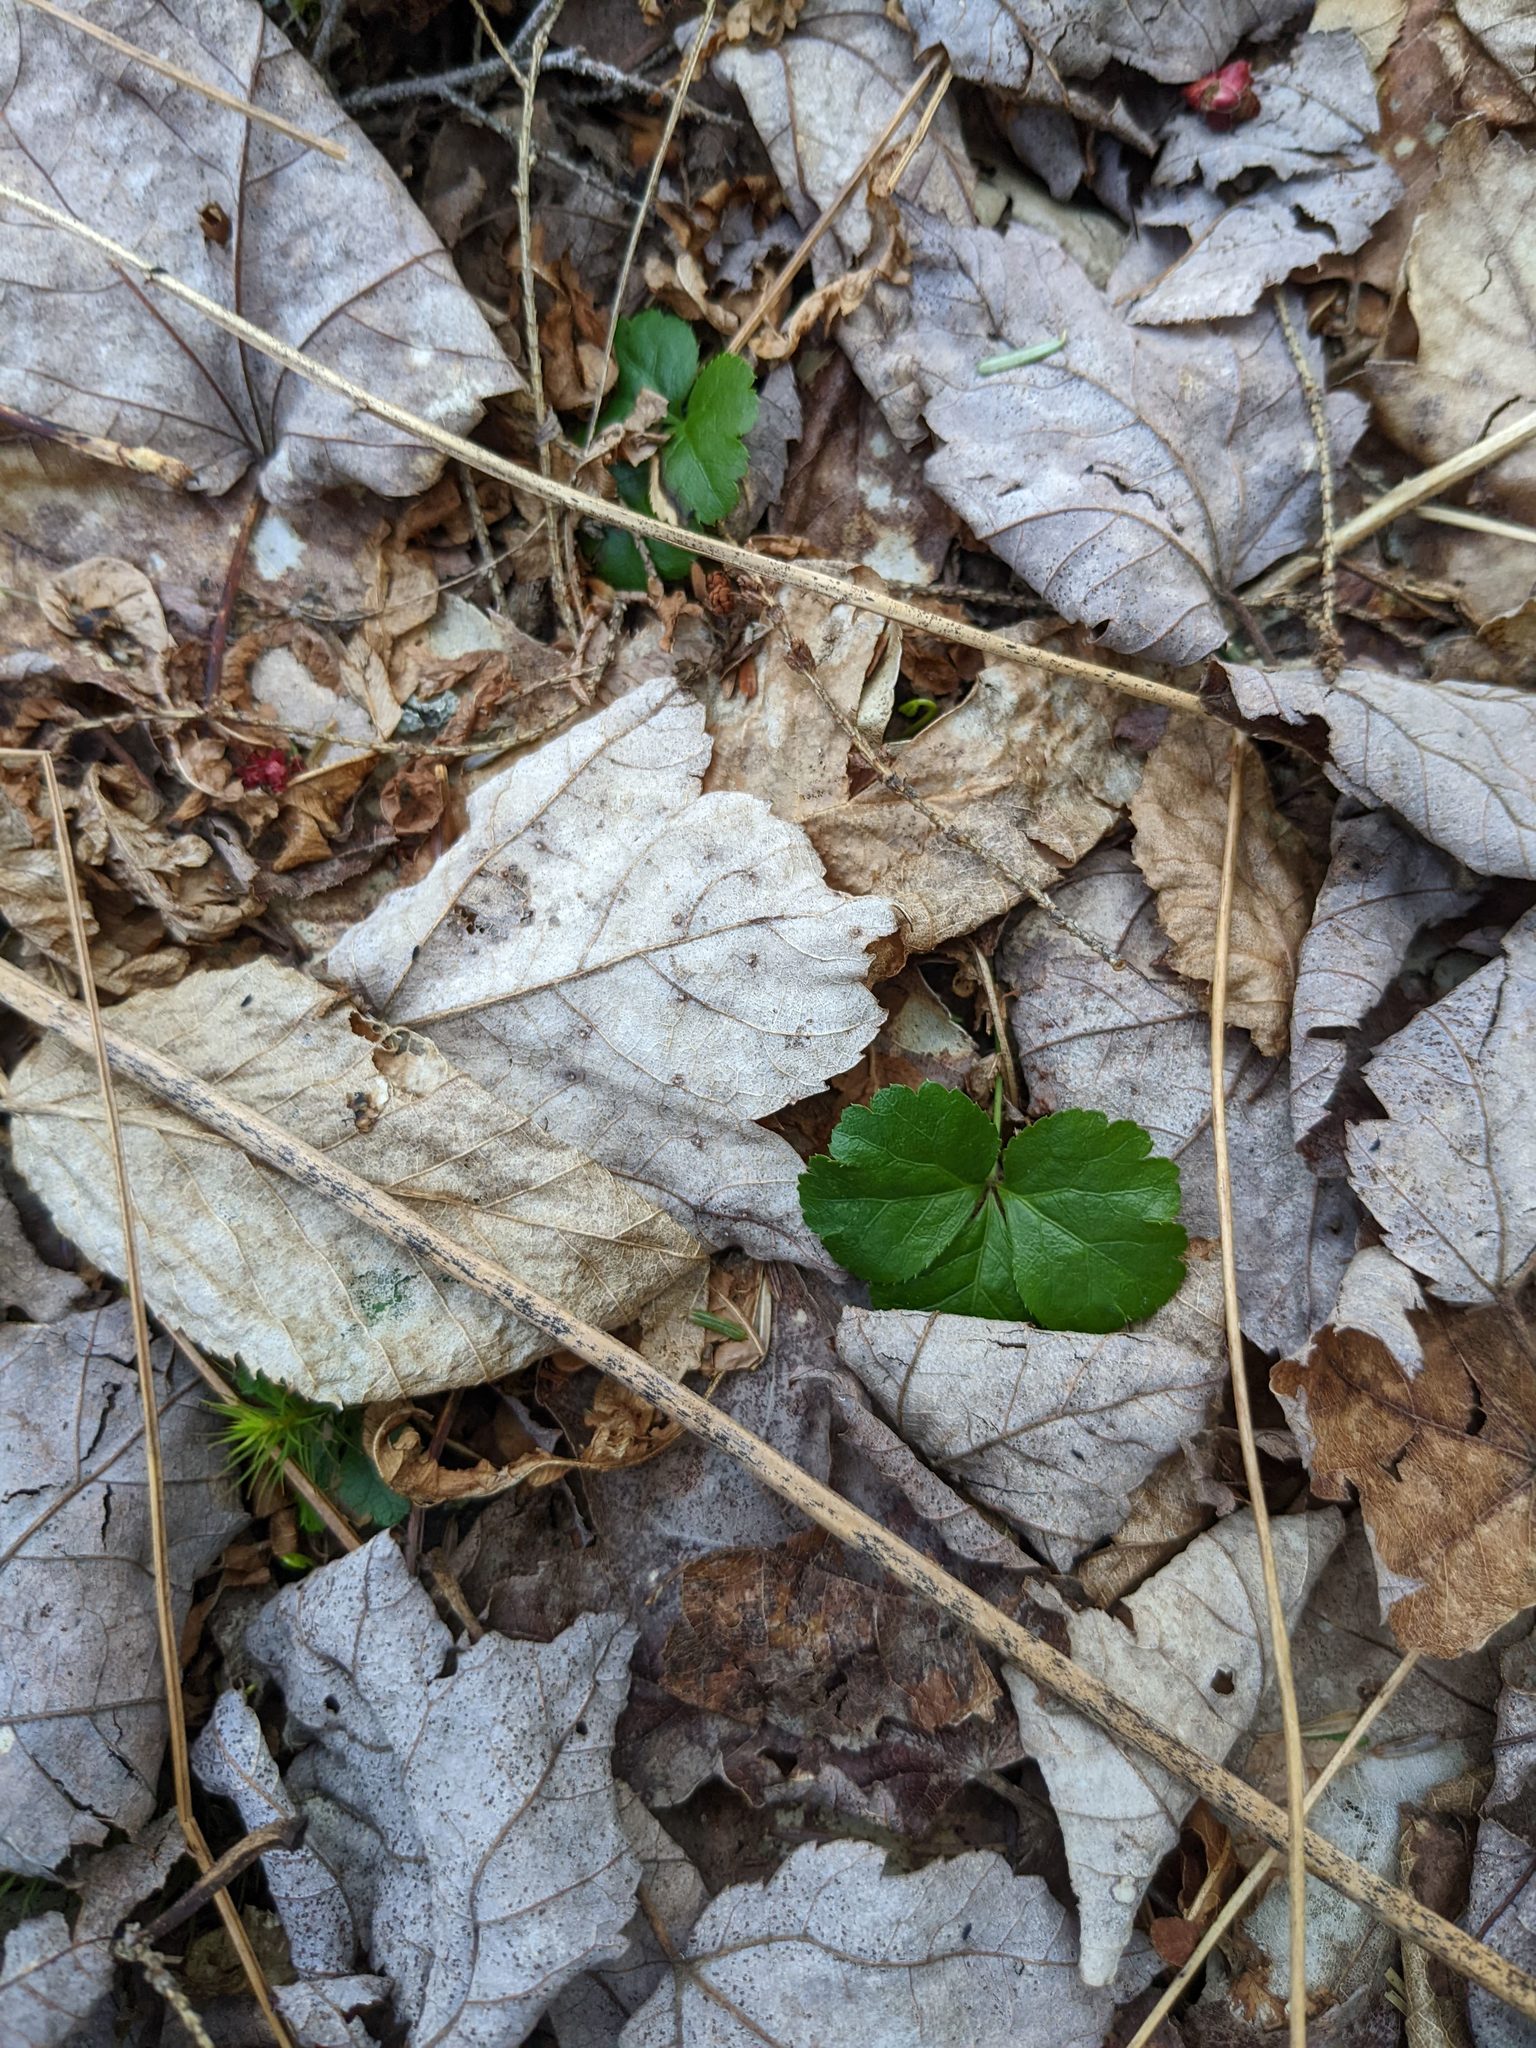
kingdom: Plantae
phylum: Tracheophyta
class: Magnoliopsida
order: Ranunculales
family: Ranunculaceae
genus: Coptis
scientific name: Coptis trifolia
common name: Canker-root
